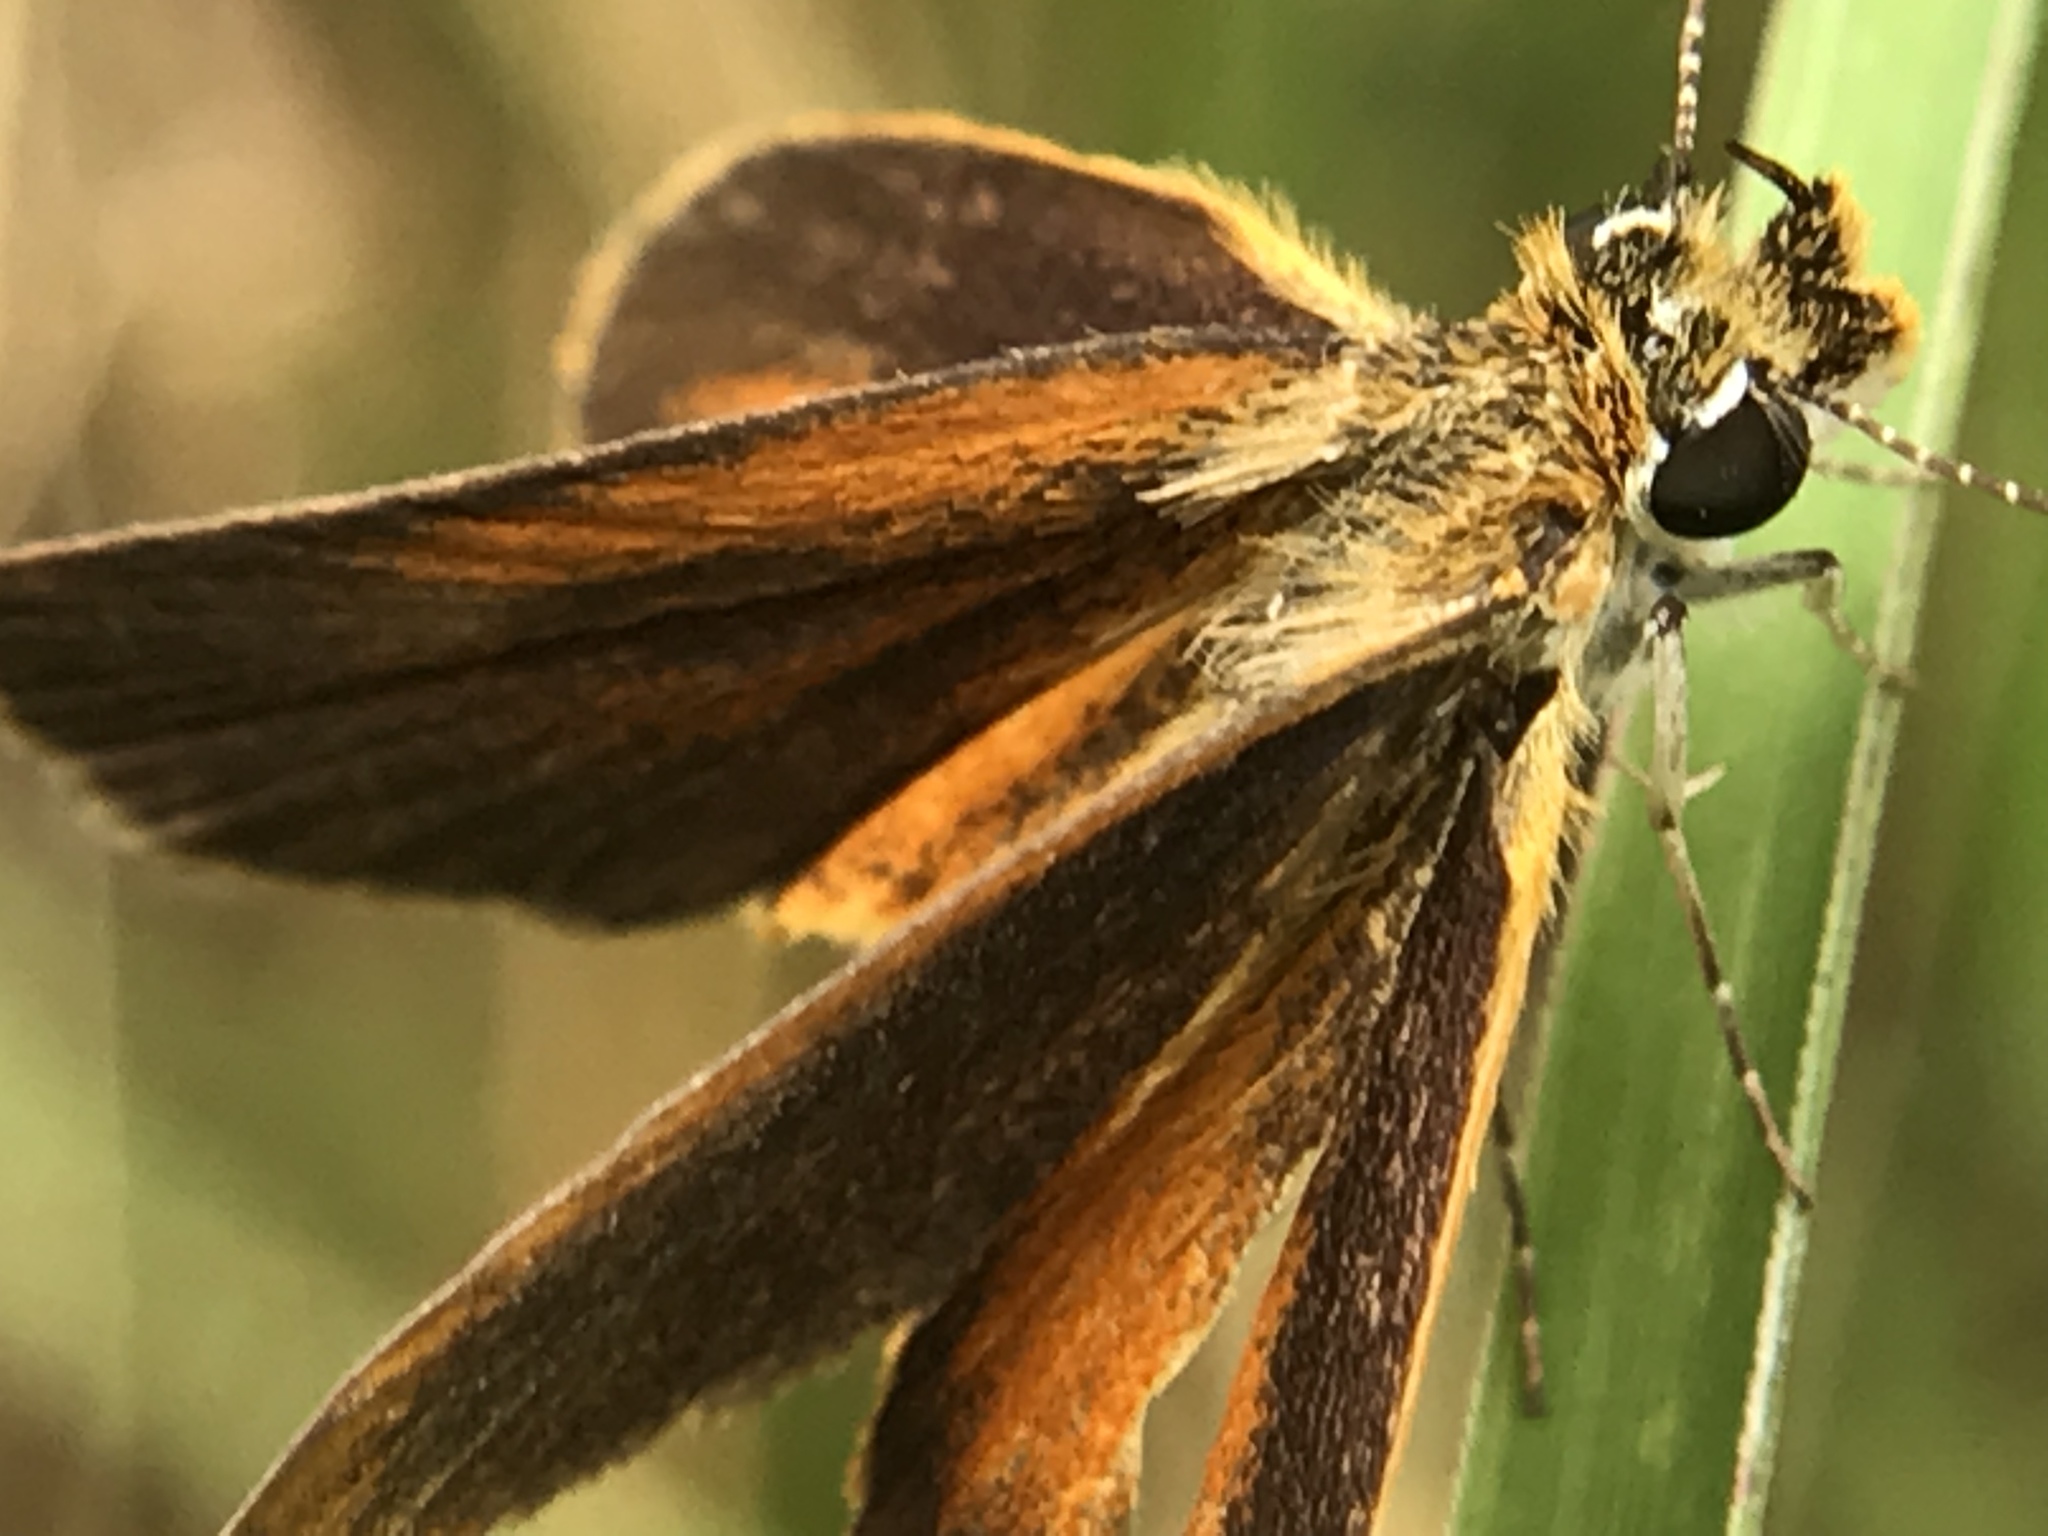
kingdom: Animalia
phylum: Arthropoda
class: Insecta
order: Lepidoptera
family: Hesperiidae
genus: Ancyloxypha
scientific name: Ancyloxypha numitor
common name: Least skipper
